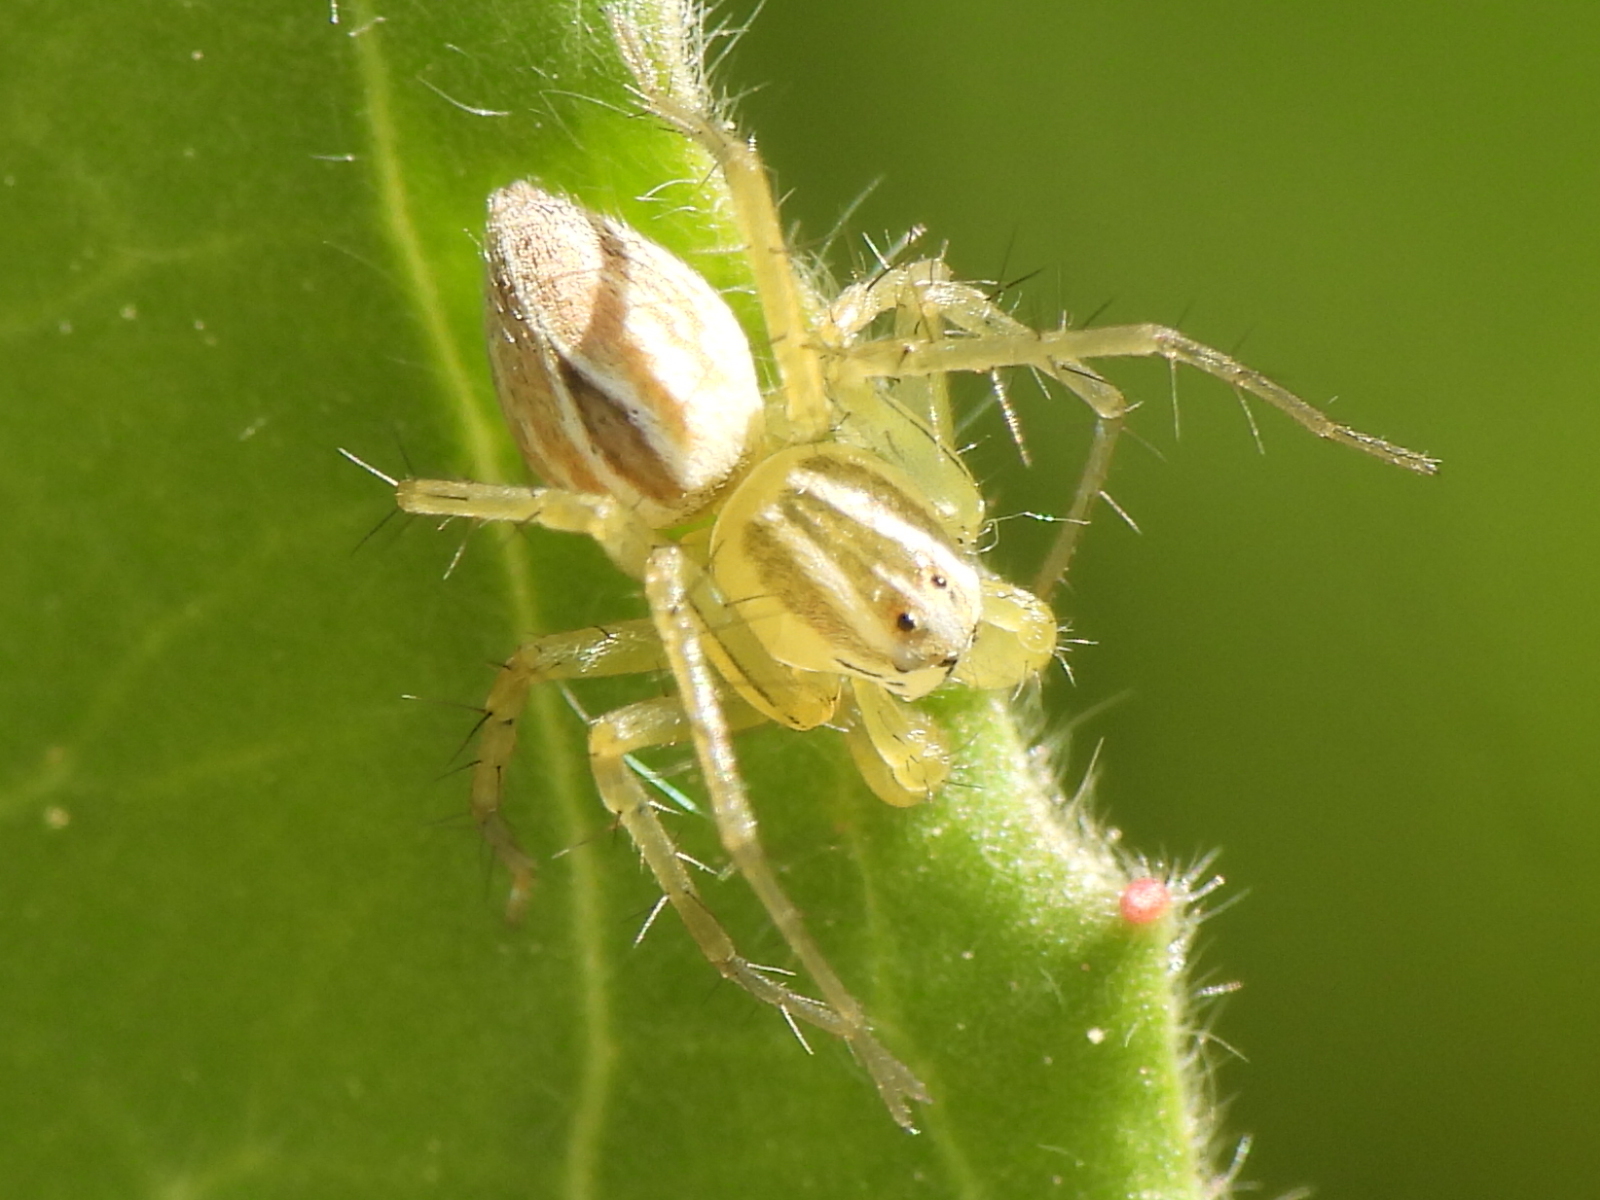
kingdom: Animalia
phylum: Arthropoda
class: Arachnida
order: Araneae
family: Oxyopidae
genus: Oxyopes
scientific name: Oxyopes salticus
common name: Lynx spiders
